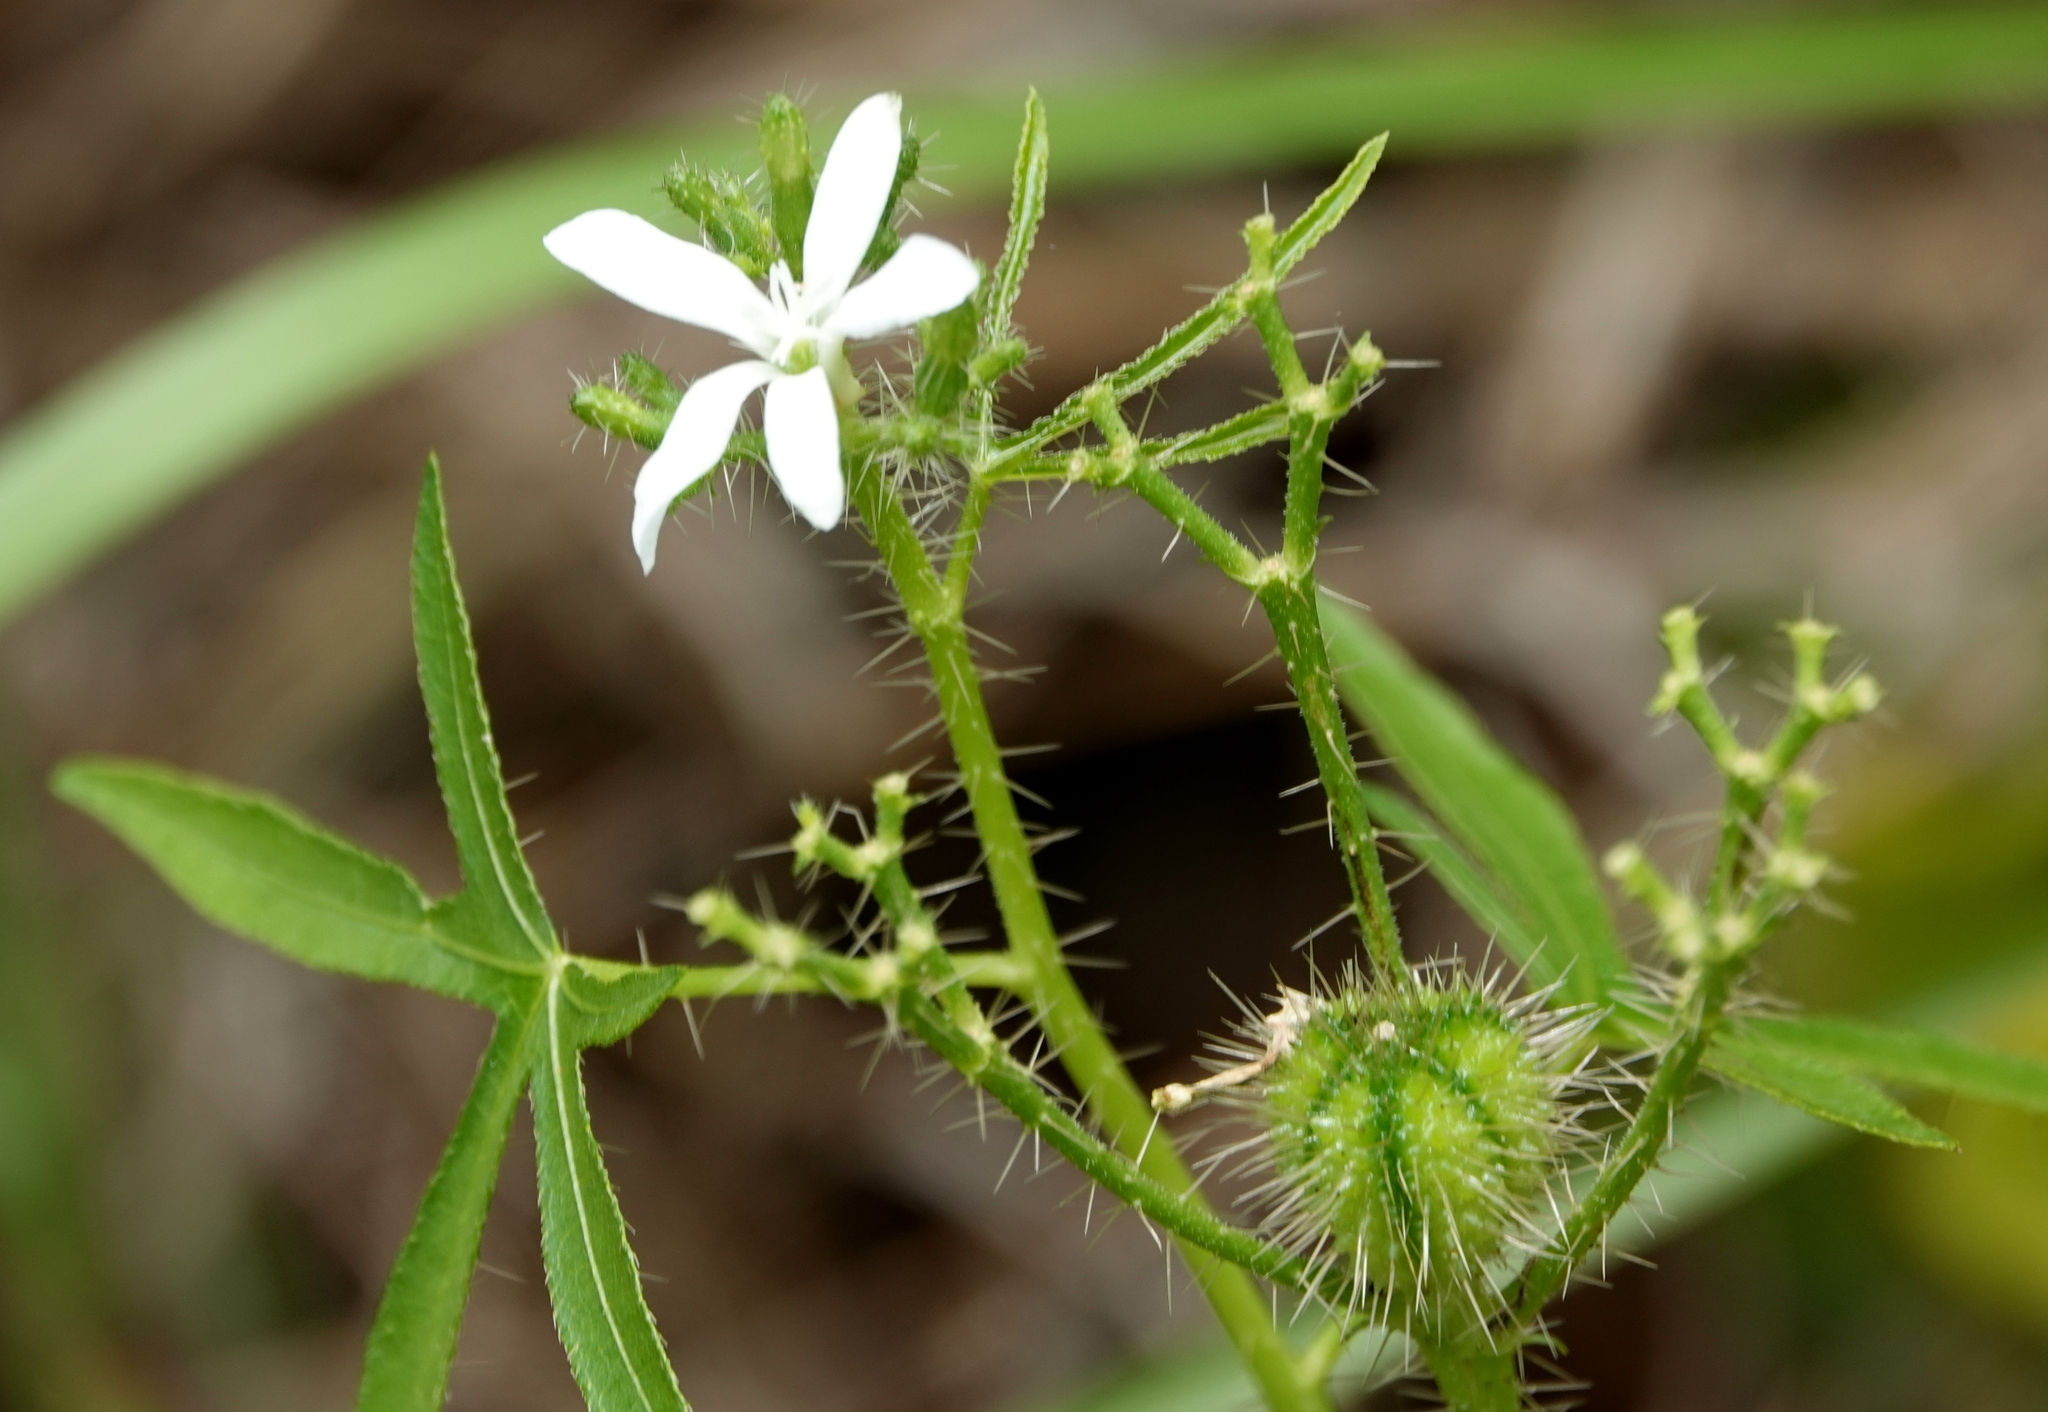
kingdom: Plantae
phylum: Tracheophyta
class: Magnoliopsida
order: Malpighiales
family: Euphorbiaceae
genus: Cnidoscolus
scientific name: Cnidoscolus stimulosus
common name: Bull-nettle
